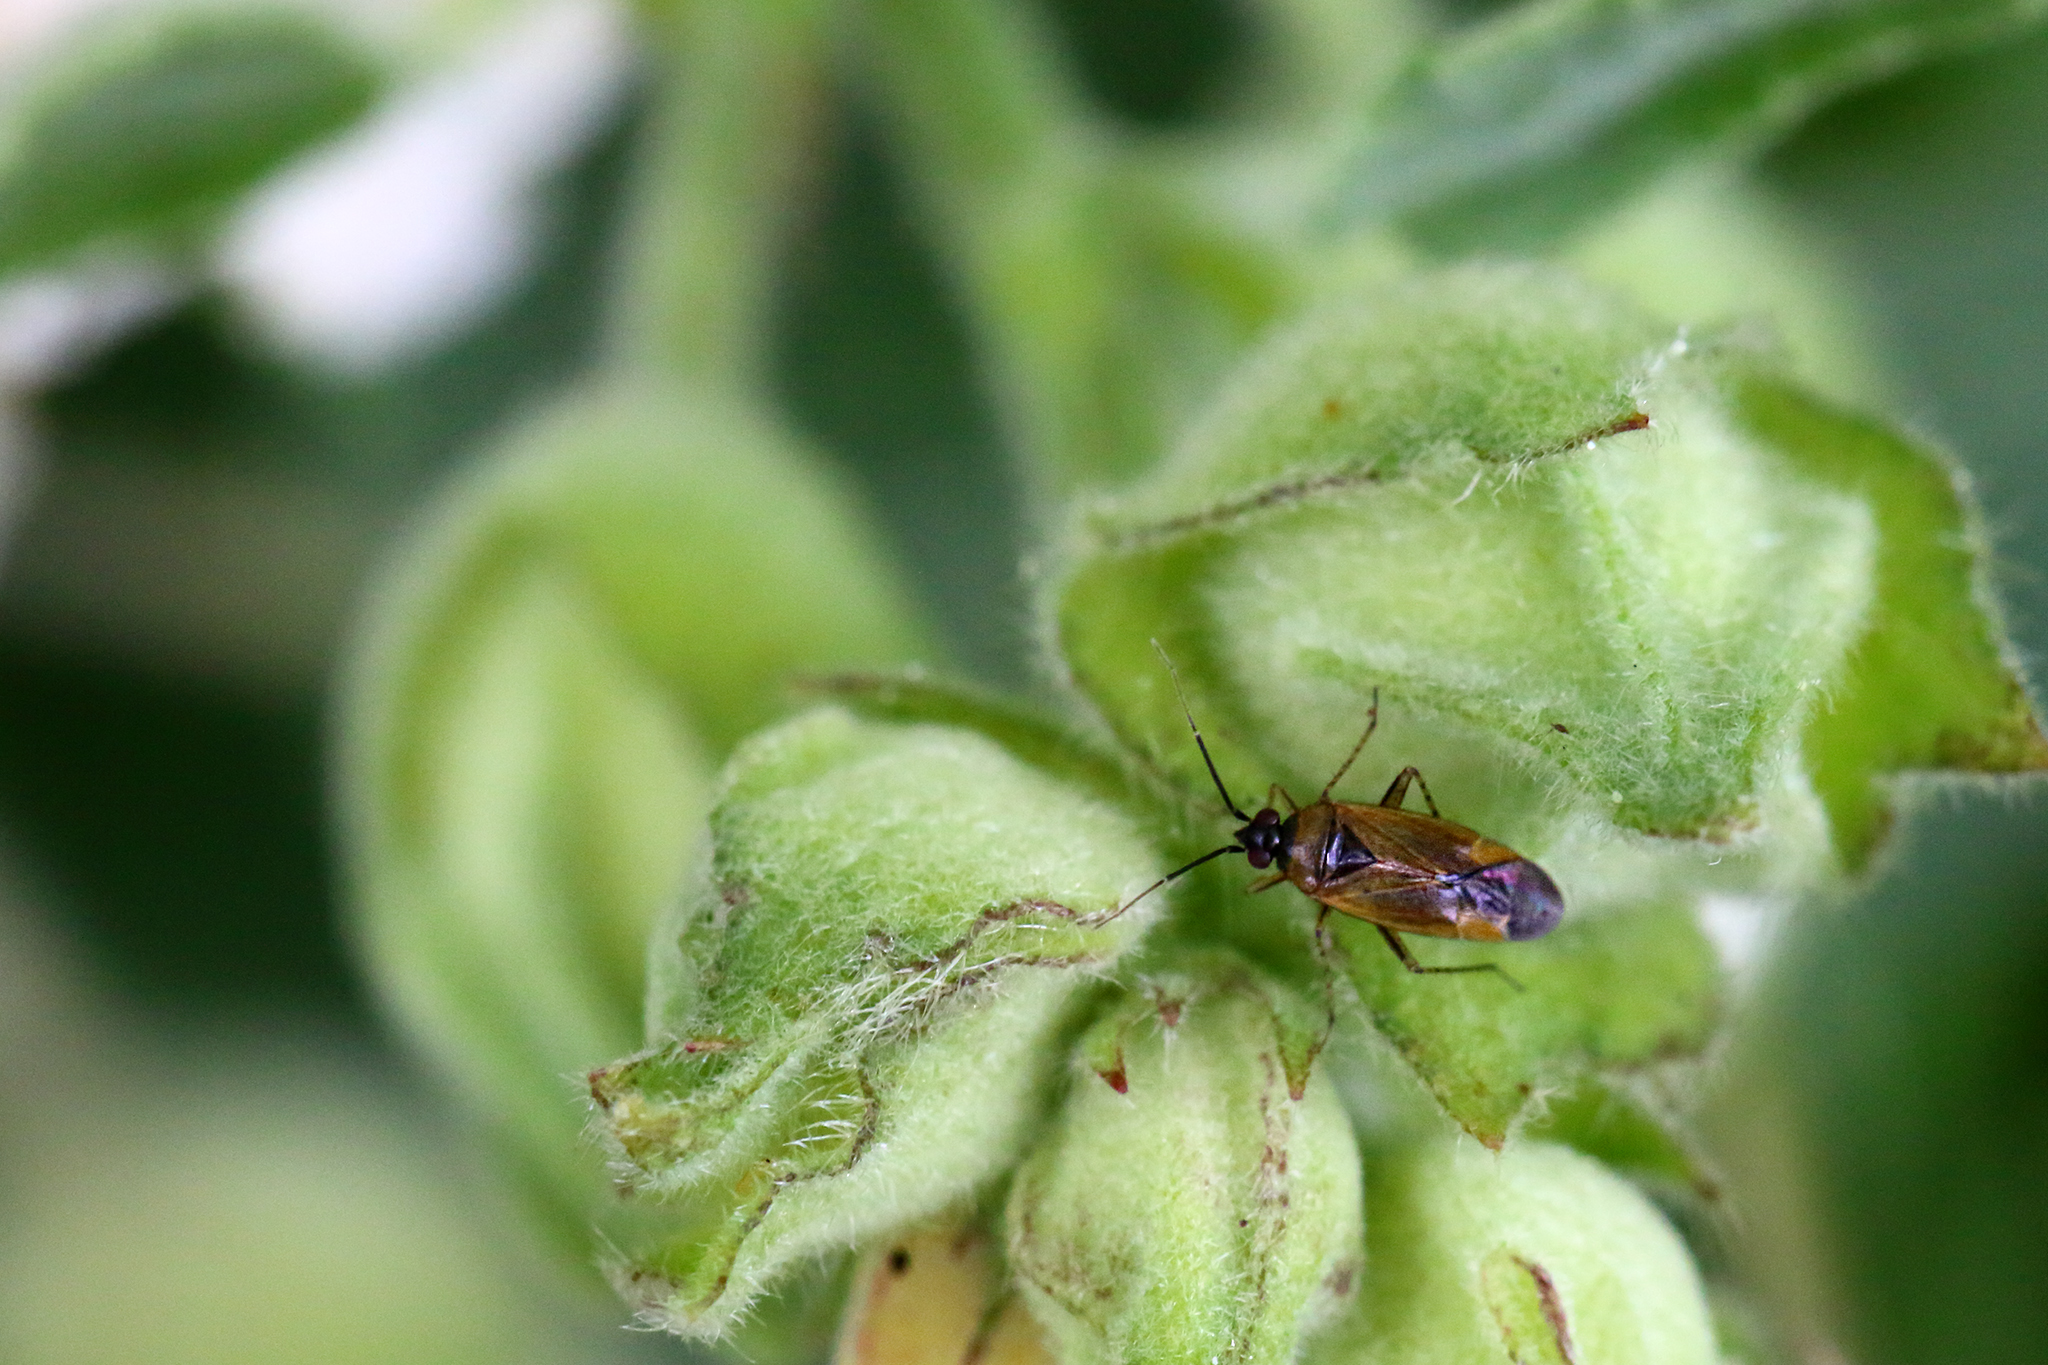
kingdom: Animalia
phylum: Arthropoda
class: Insecta
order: Hemiptera
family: Miridae
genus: Plagiognathus
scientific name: Plagiognathus arbustorum
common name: Plant bug
